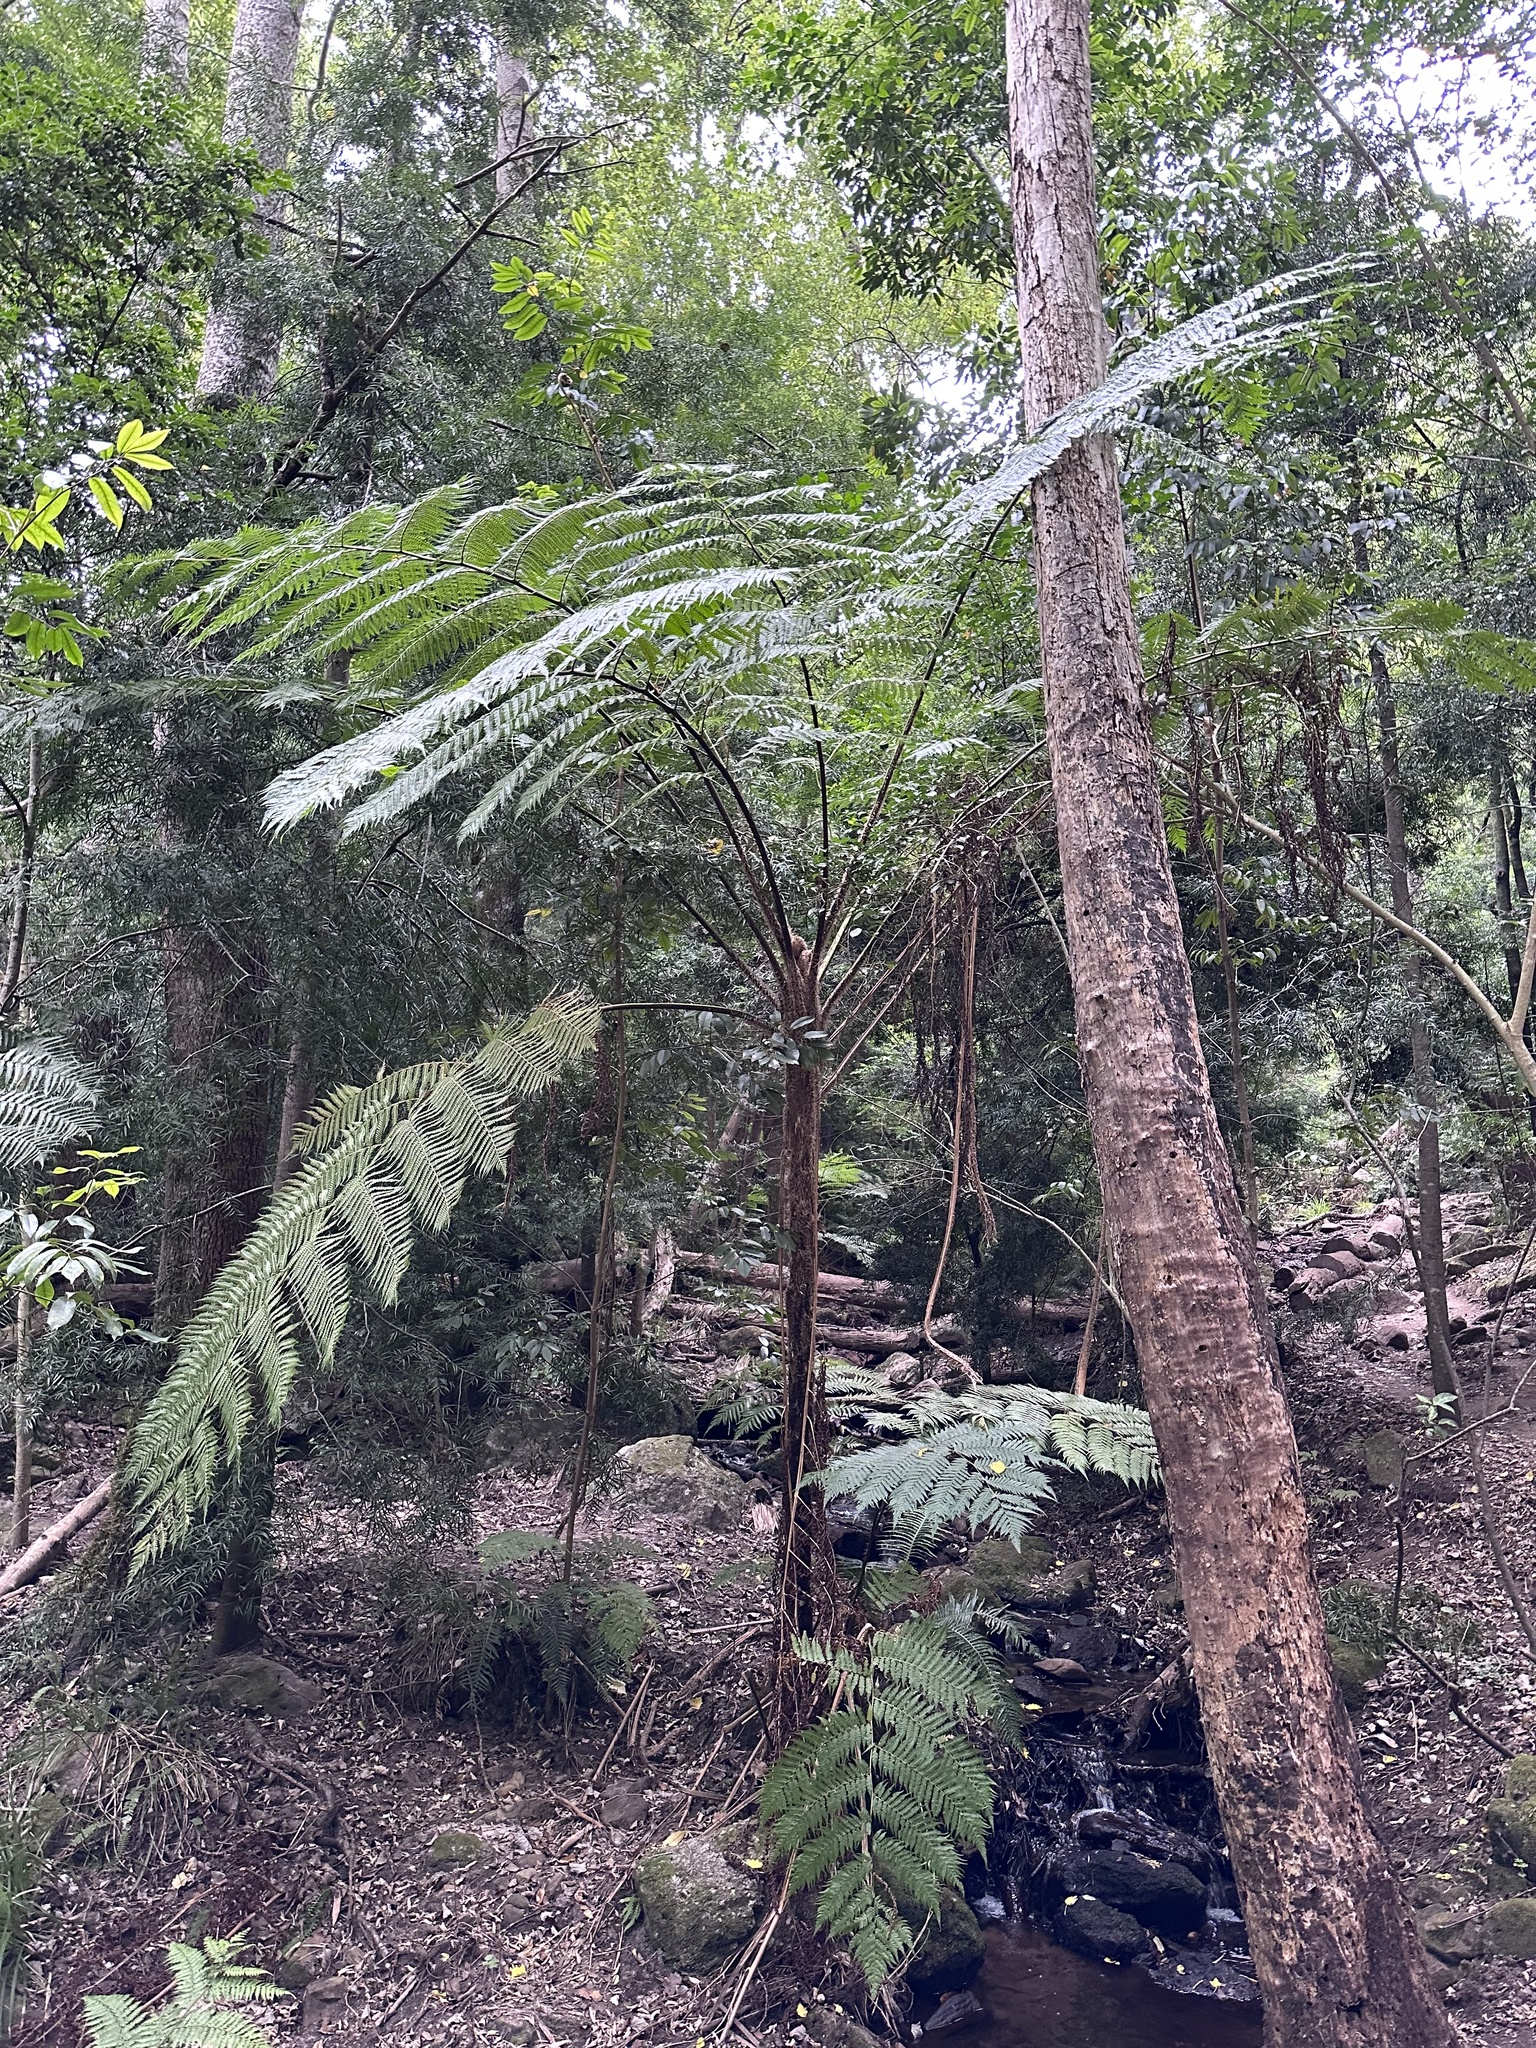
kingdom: Plantae
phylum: Tracheophyta
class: Polypodiopsida
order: Cyatheales
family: Cyatheaceae
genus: Sphaeropteris
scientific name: Sphaeropteris cooperi
